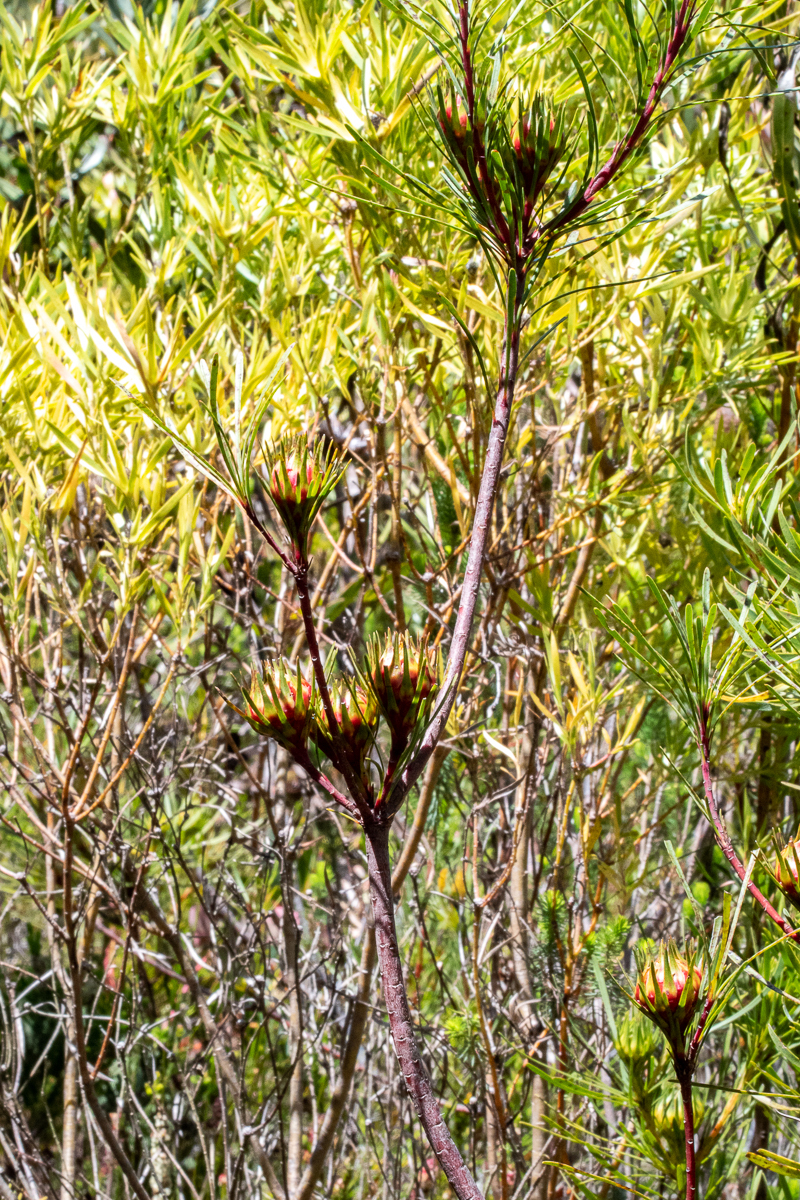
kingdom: Plantae
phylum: Tracheophyta
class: Magnoliopsida
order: Proteales
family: Proteaceae
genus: Aulax
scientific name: Aulax
